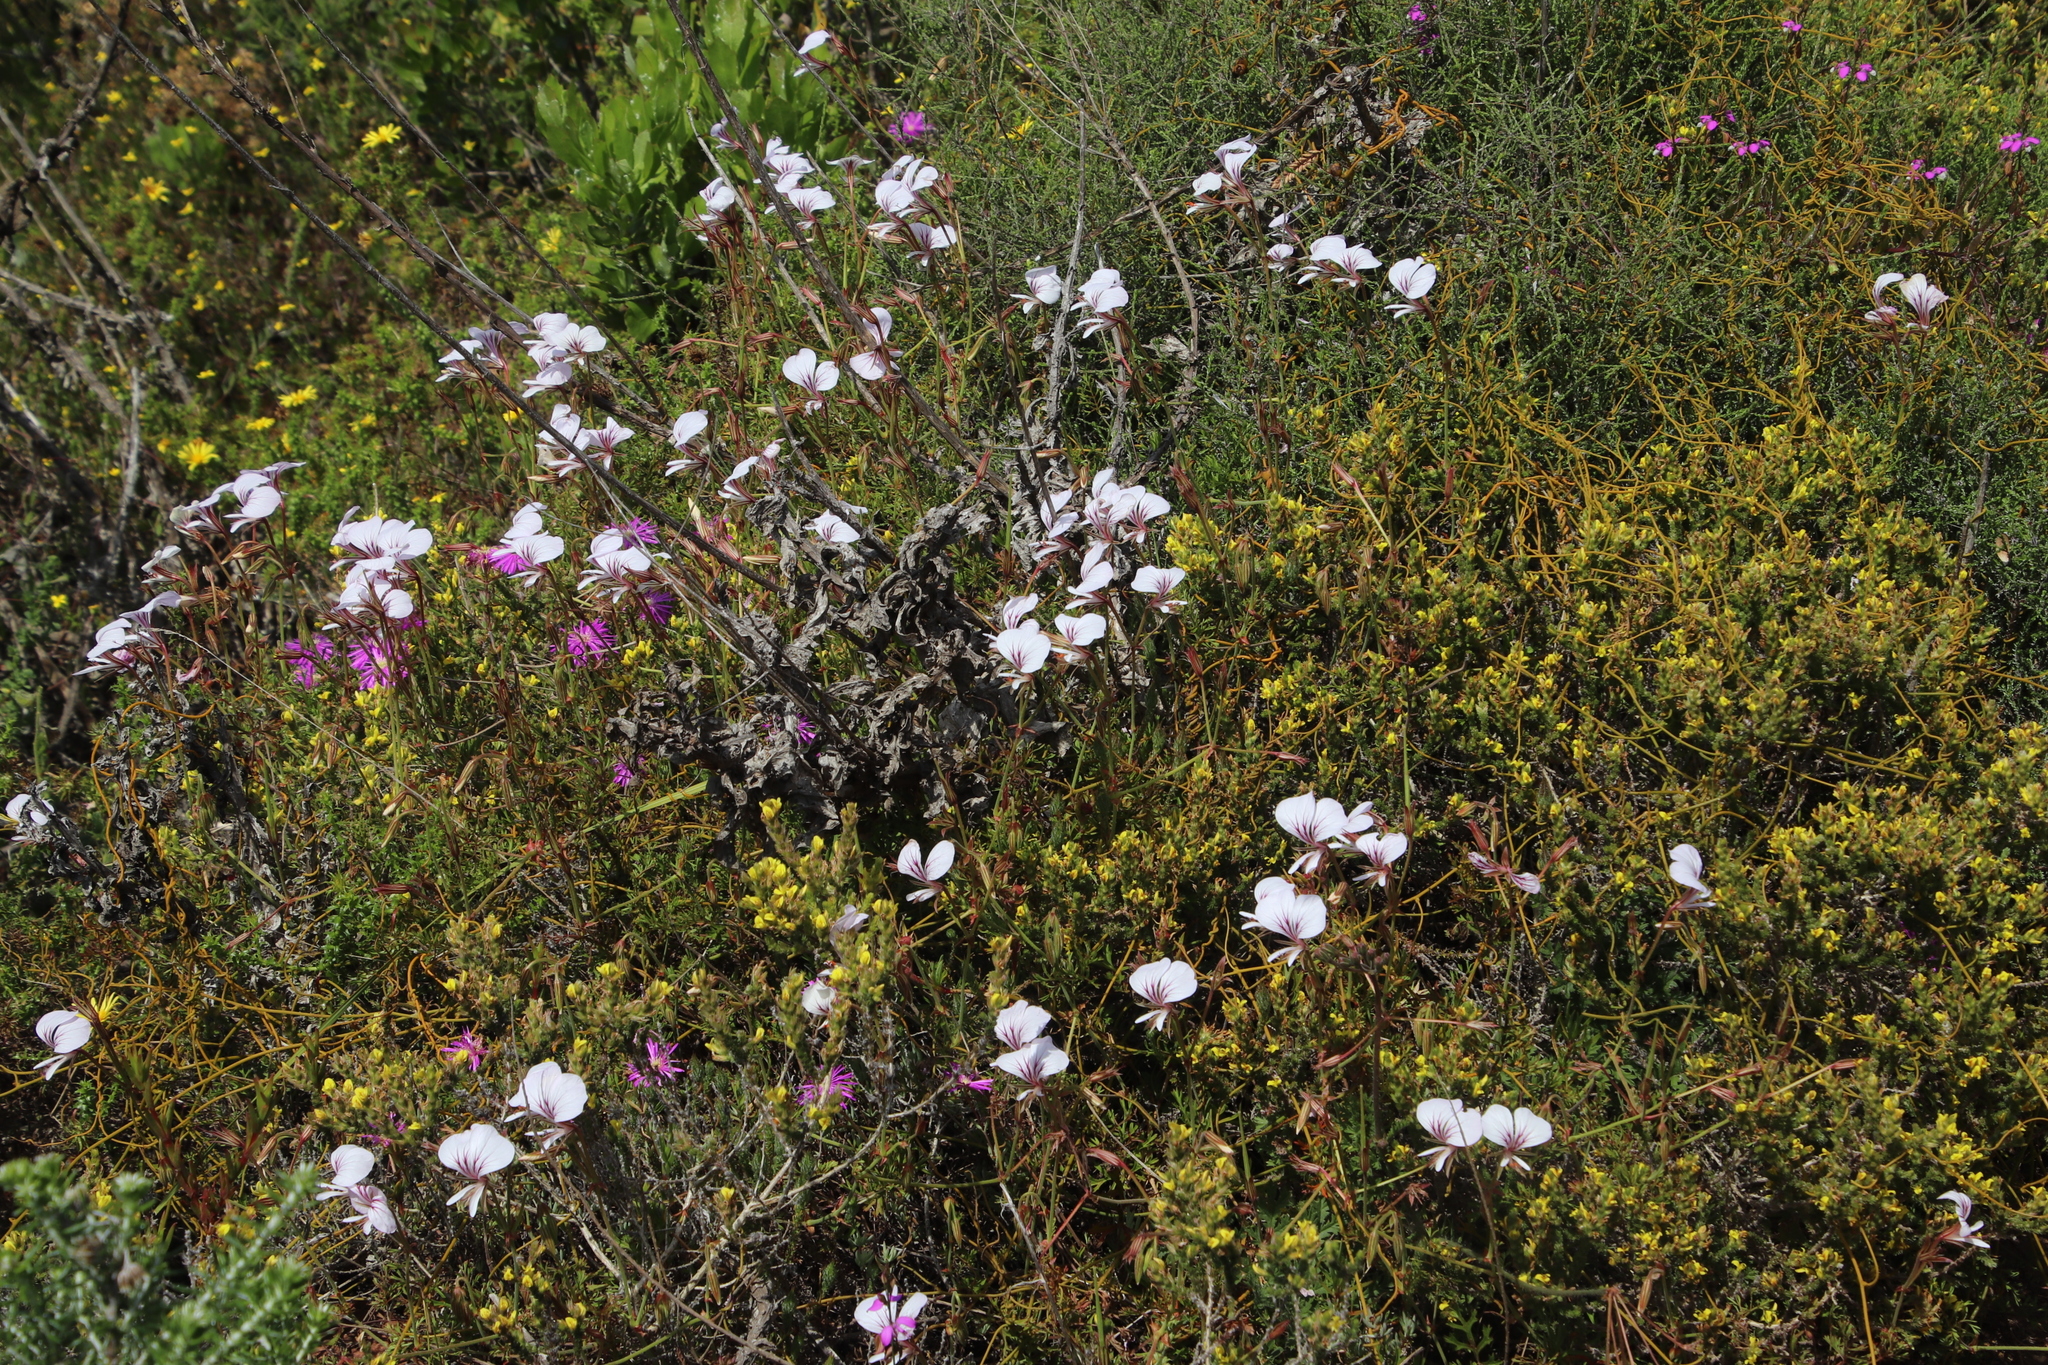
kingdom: Plantae
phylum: Tracheophyta
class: Magnoliopsida
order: Geraniales
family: Geraniaceae
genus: Pelargonium
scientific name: Pelargonium longicaule
